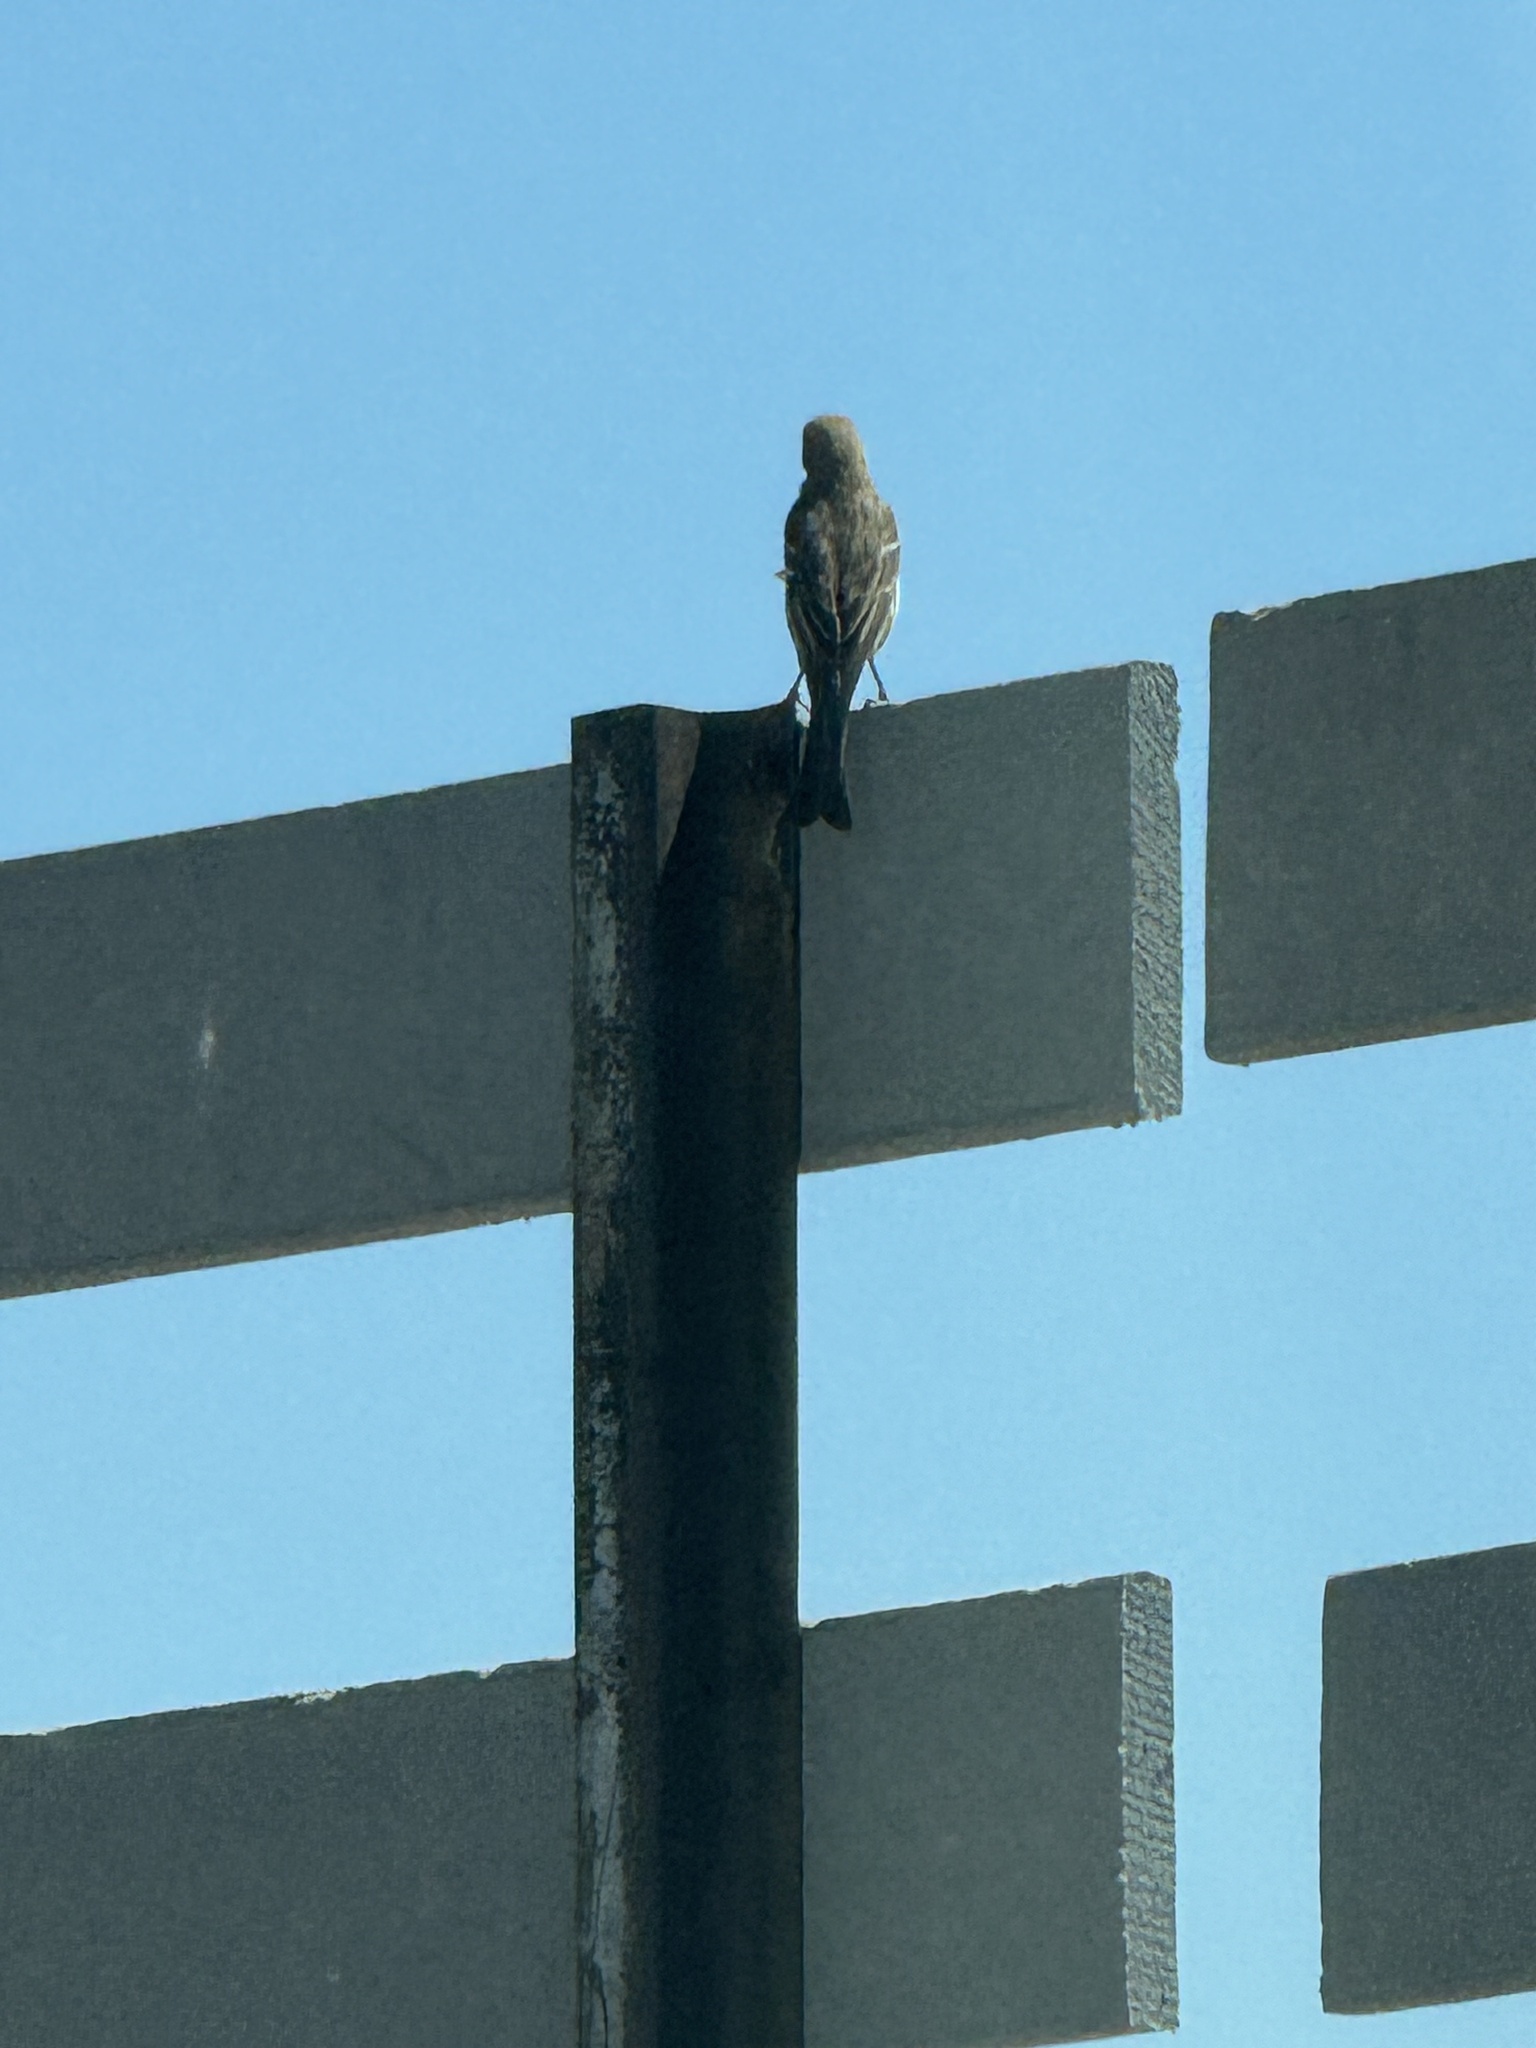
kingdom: Animalia
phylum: Chordata
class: Aves
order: Passeriformes
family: Fringillidae
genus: Haemorhous
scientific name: Haemorhous mexicanus
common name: House finch
